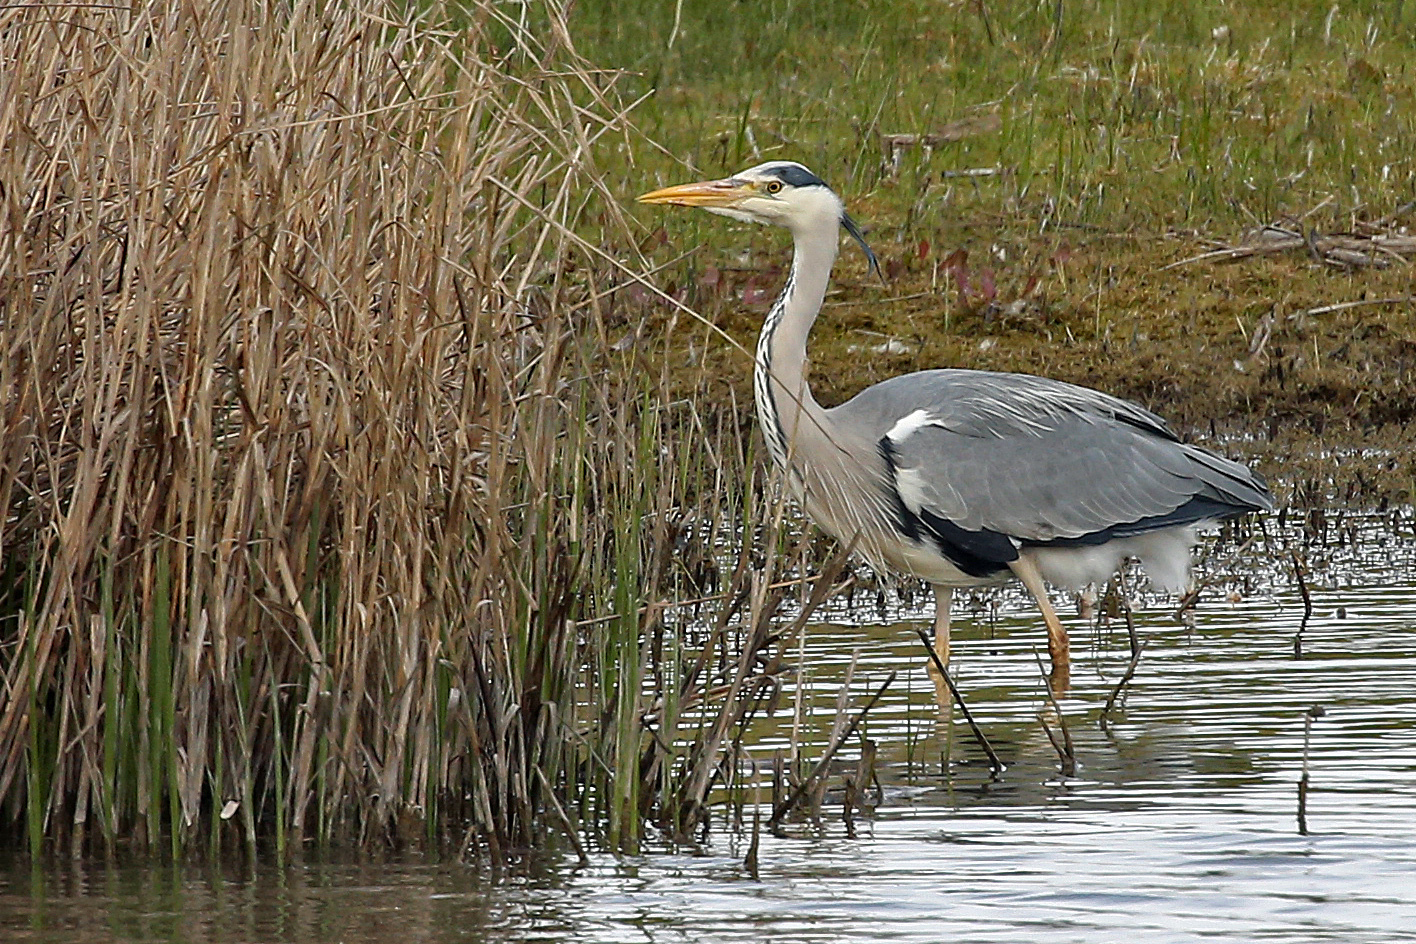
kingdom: Animalia
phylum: Chordata
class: Aves
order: Pelecaniformes
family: Ardeidae
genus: Ardea
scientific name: Ardea cinerea
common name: Grey heron
